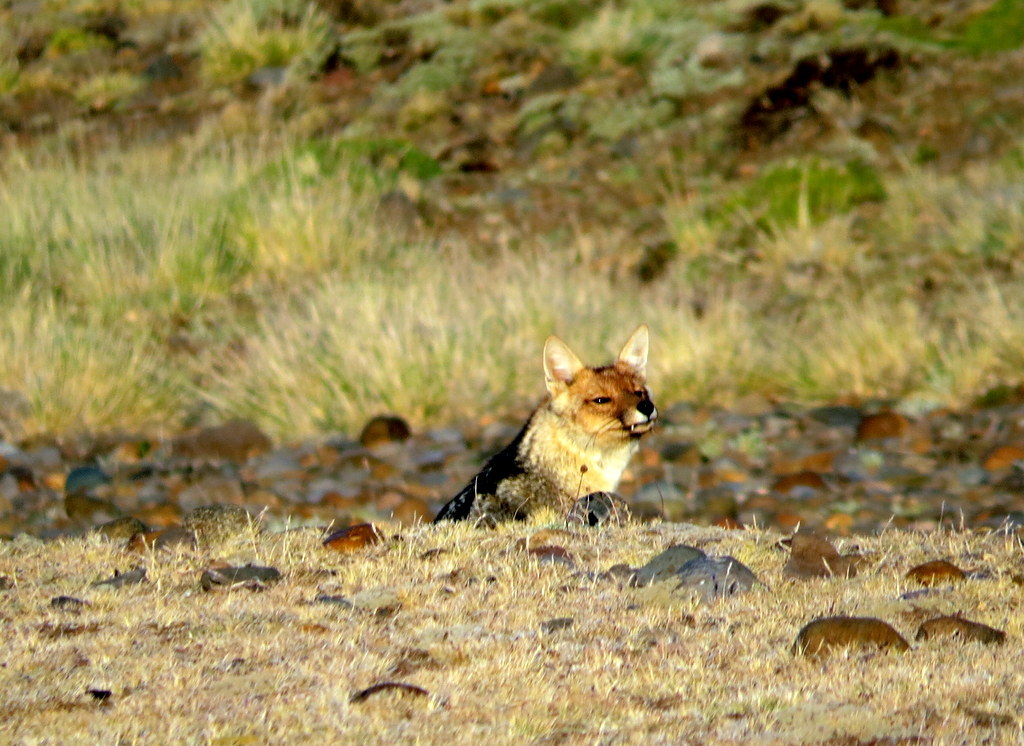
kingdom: Animalia
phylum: Chordata
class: Mammalia
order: Carnivora
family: Canidae
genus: Lycalopex
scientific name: Lycalopex culpaeus
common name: Culpeo
